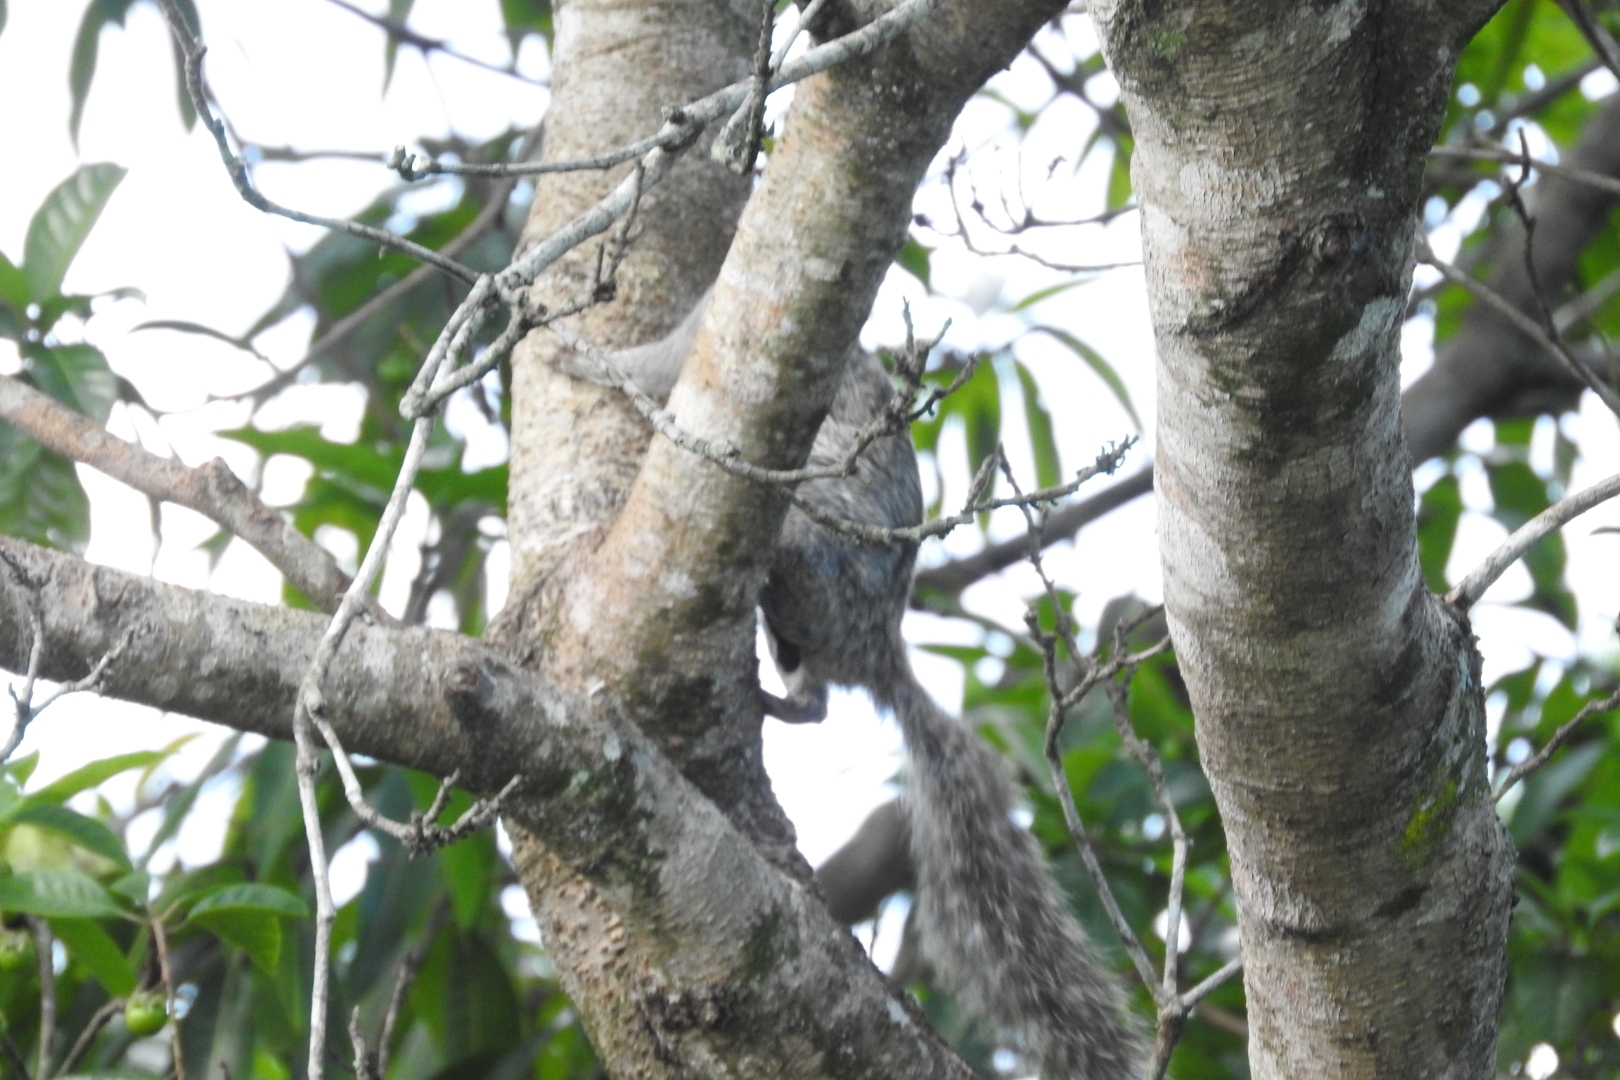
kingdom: Animalia
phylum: Chordata
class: Mammalia
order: Rodentia
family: Sciuridae
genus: Sciurus
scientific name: Sciurus yucatanensis
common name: Yucatan squirrel
